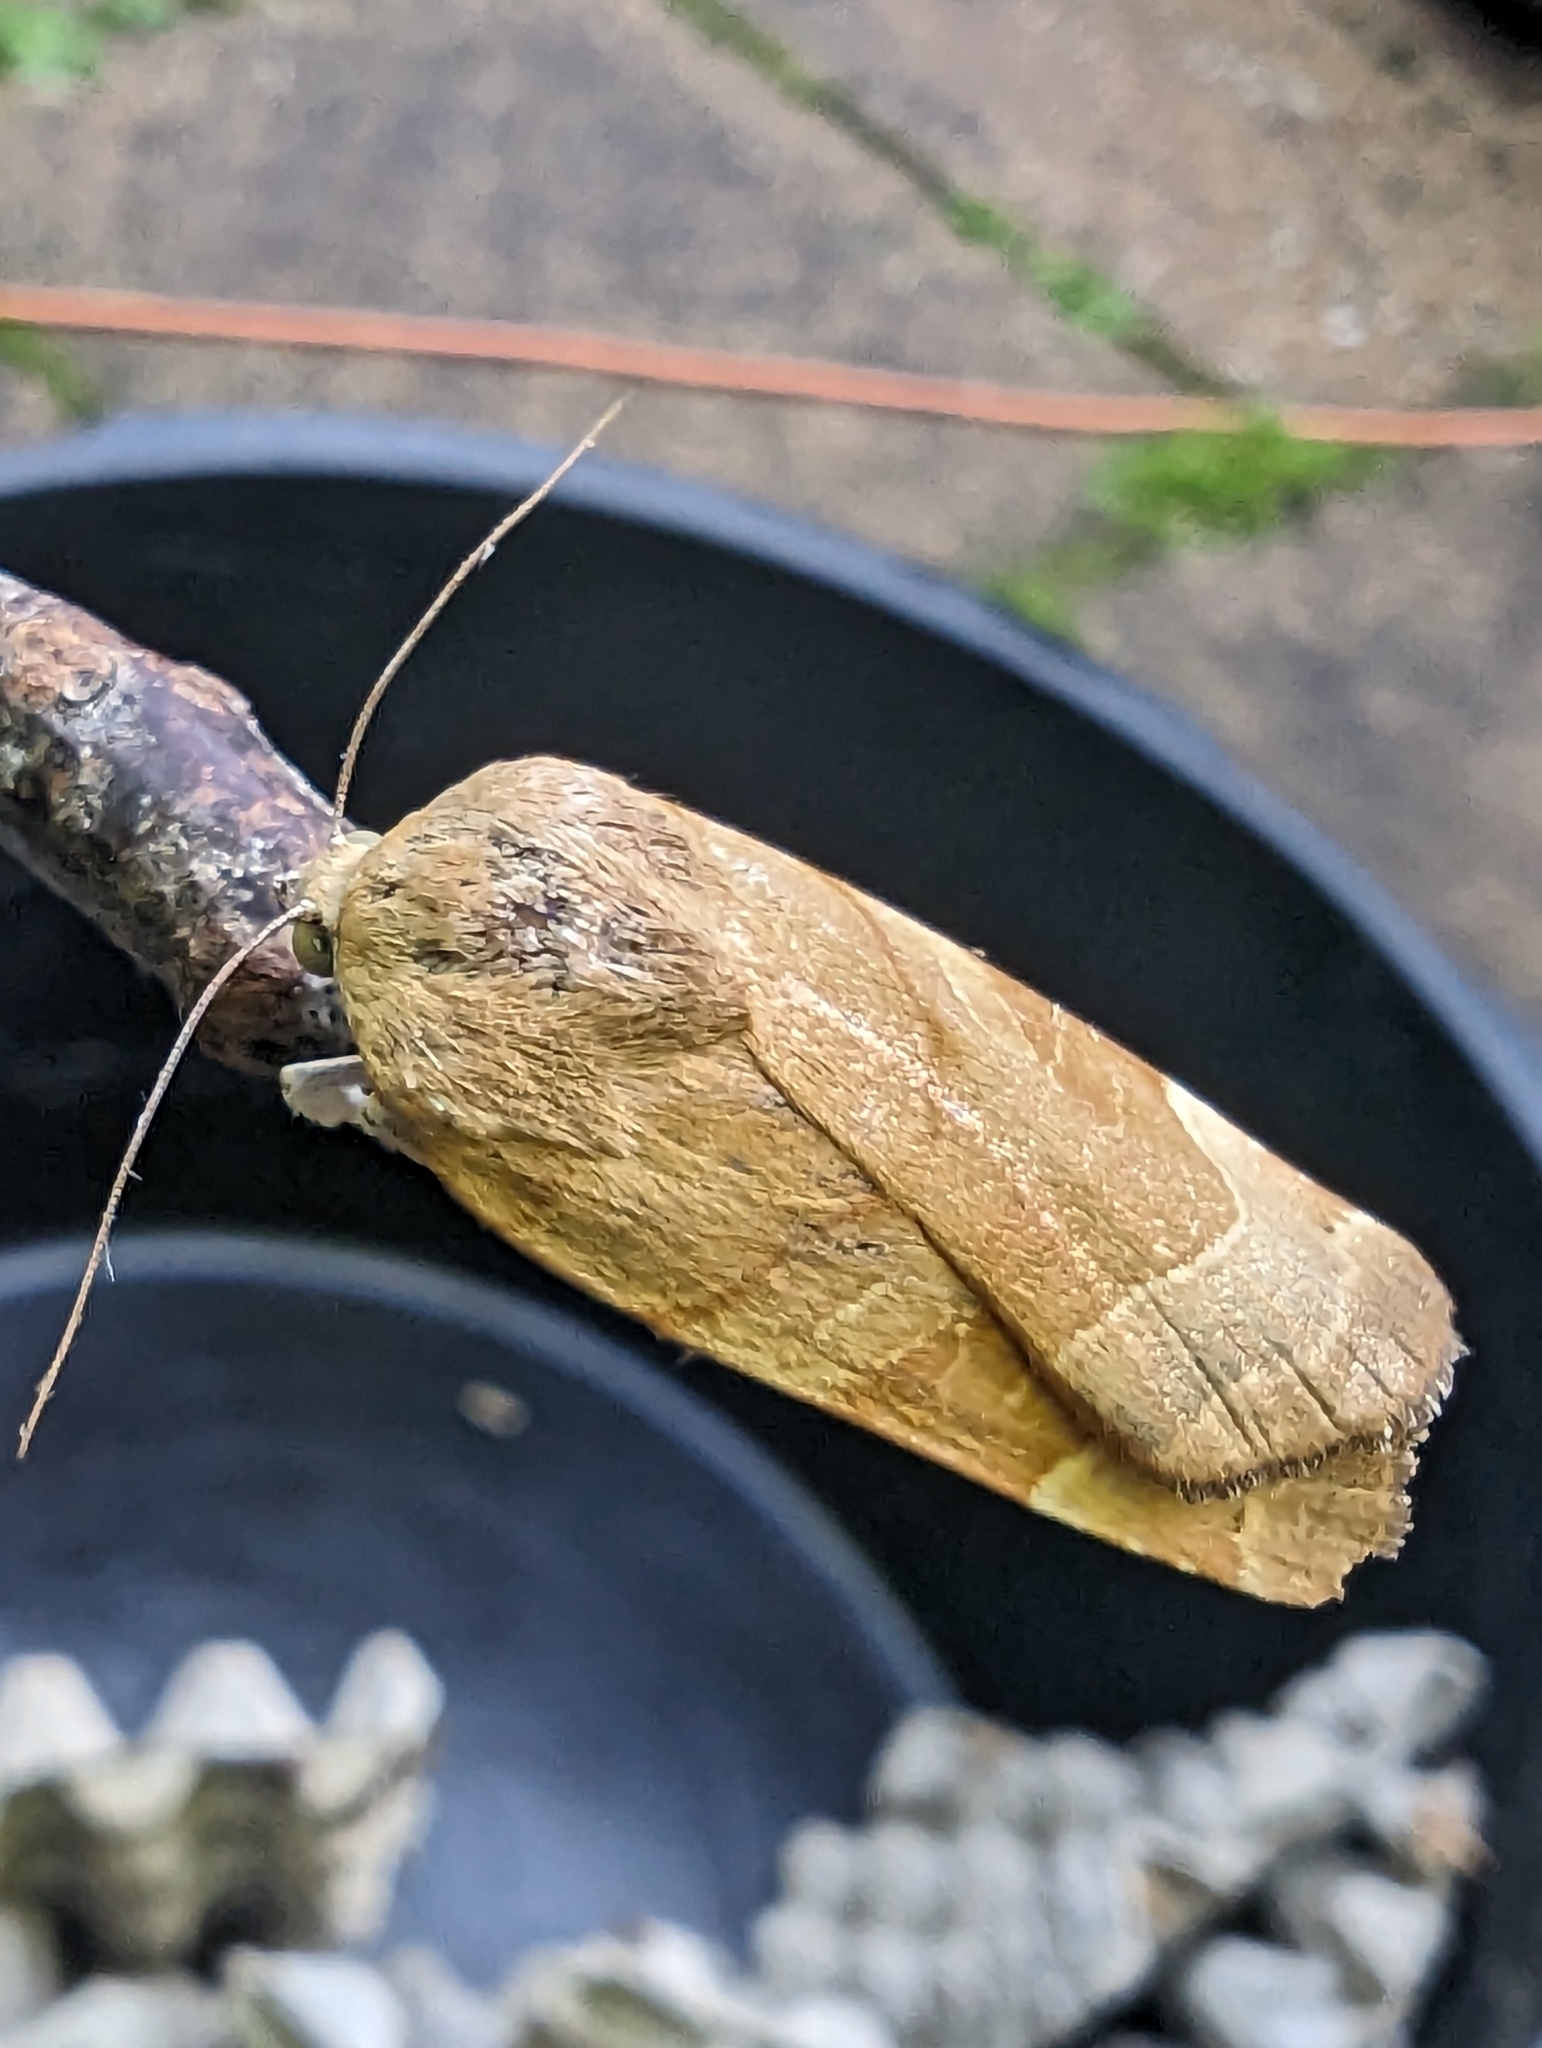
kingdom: Animalia
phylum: Arthropoda
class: Insecta
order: Lepidoptera
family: Noctuidae
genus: Noctua
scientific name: Noctua fimbriata
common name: Broad-bordered yellow underwing
